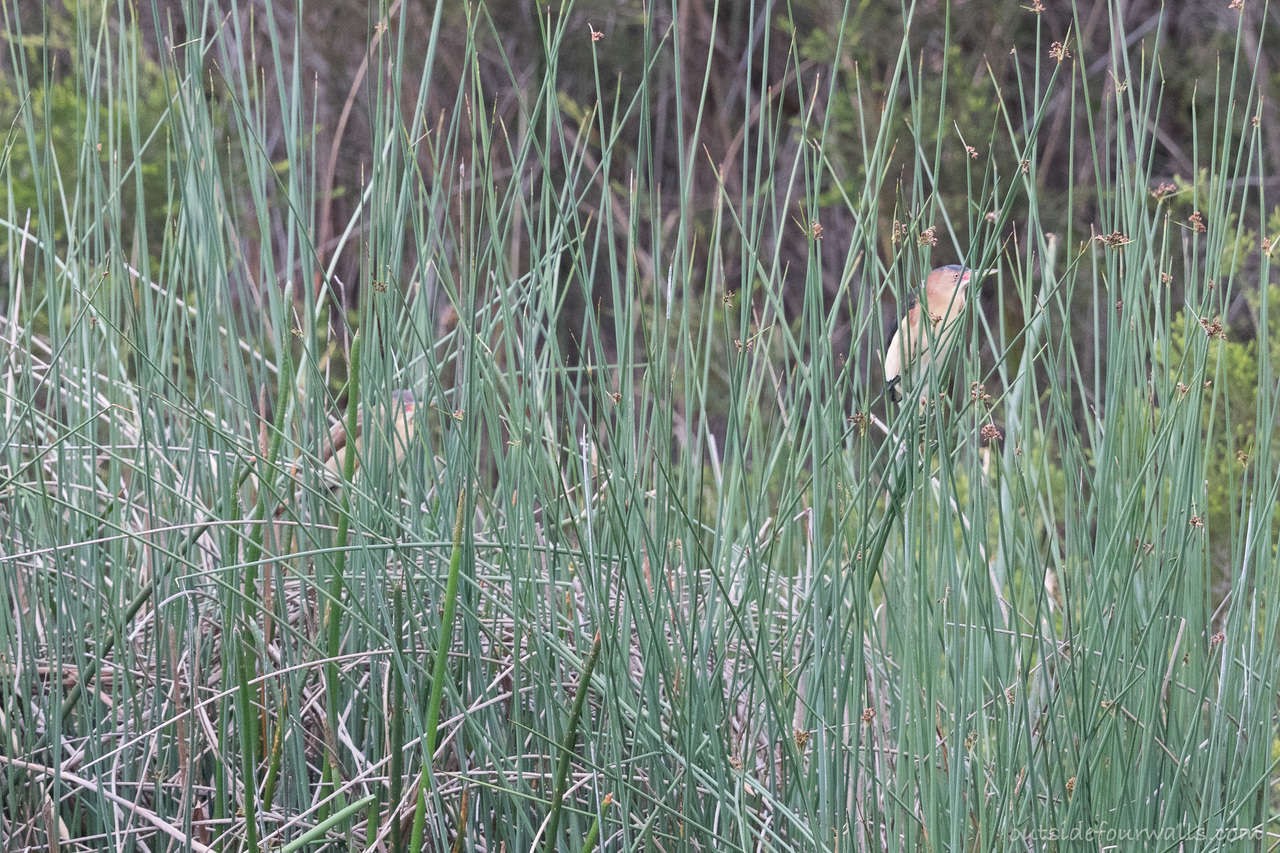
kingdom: Animalia
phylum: Chordata
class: Aves
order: Pelecaniformes
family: Ardeidae
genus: Ixobrychus
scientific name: Ixobrychus dubius
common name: Black-backed bittern
